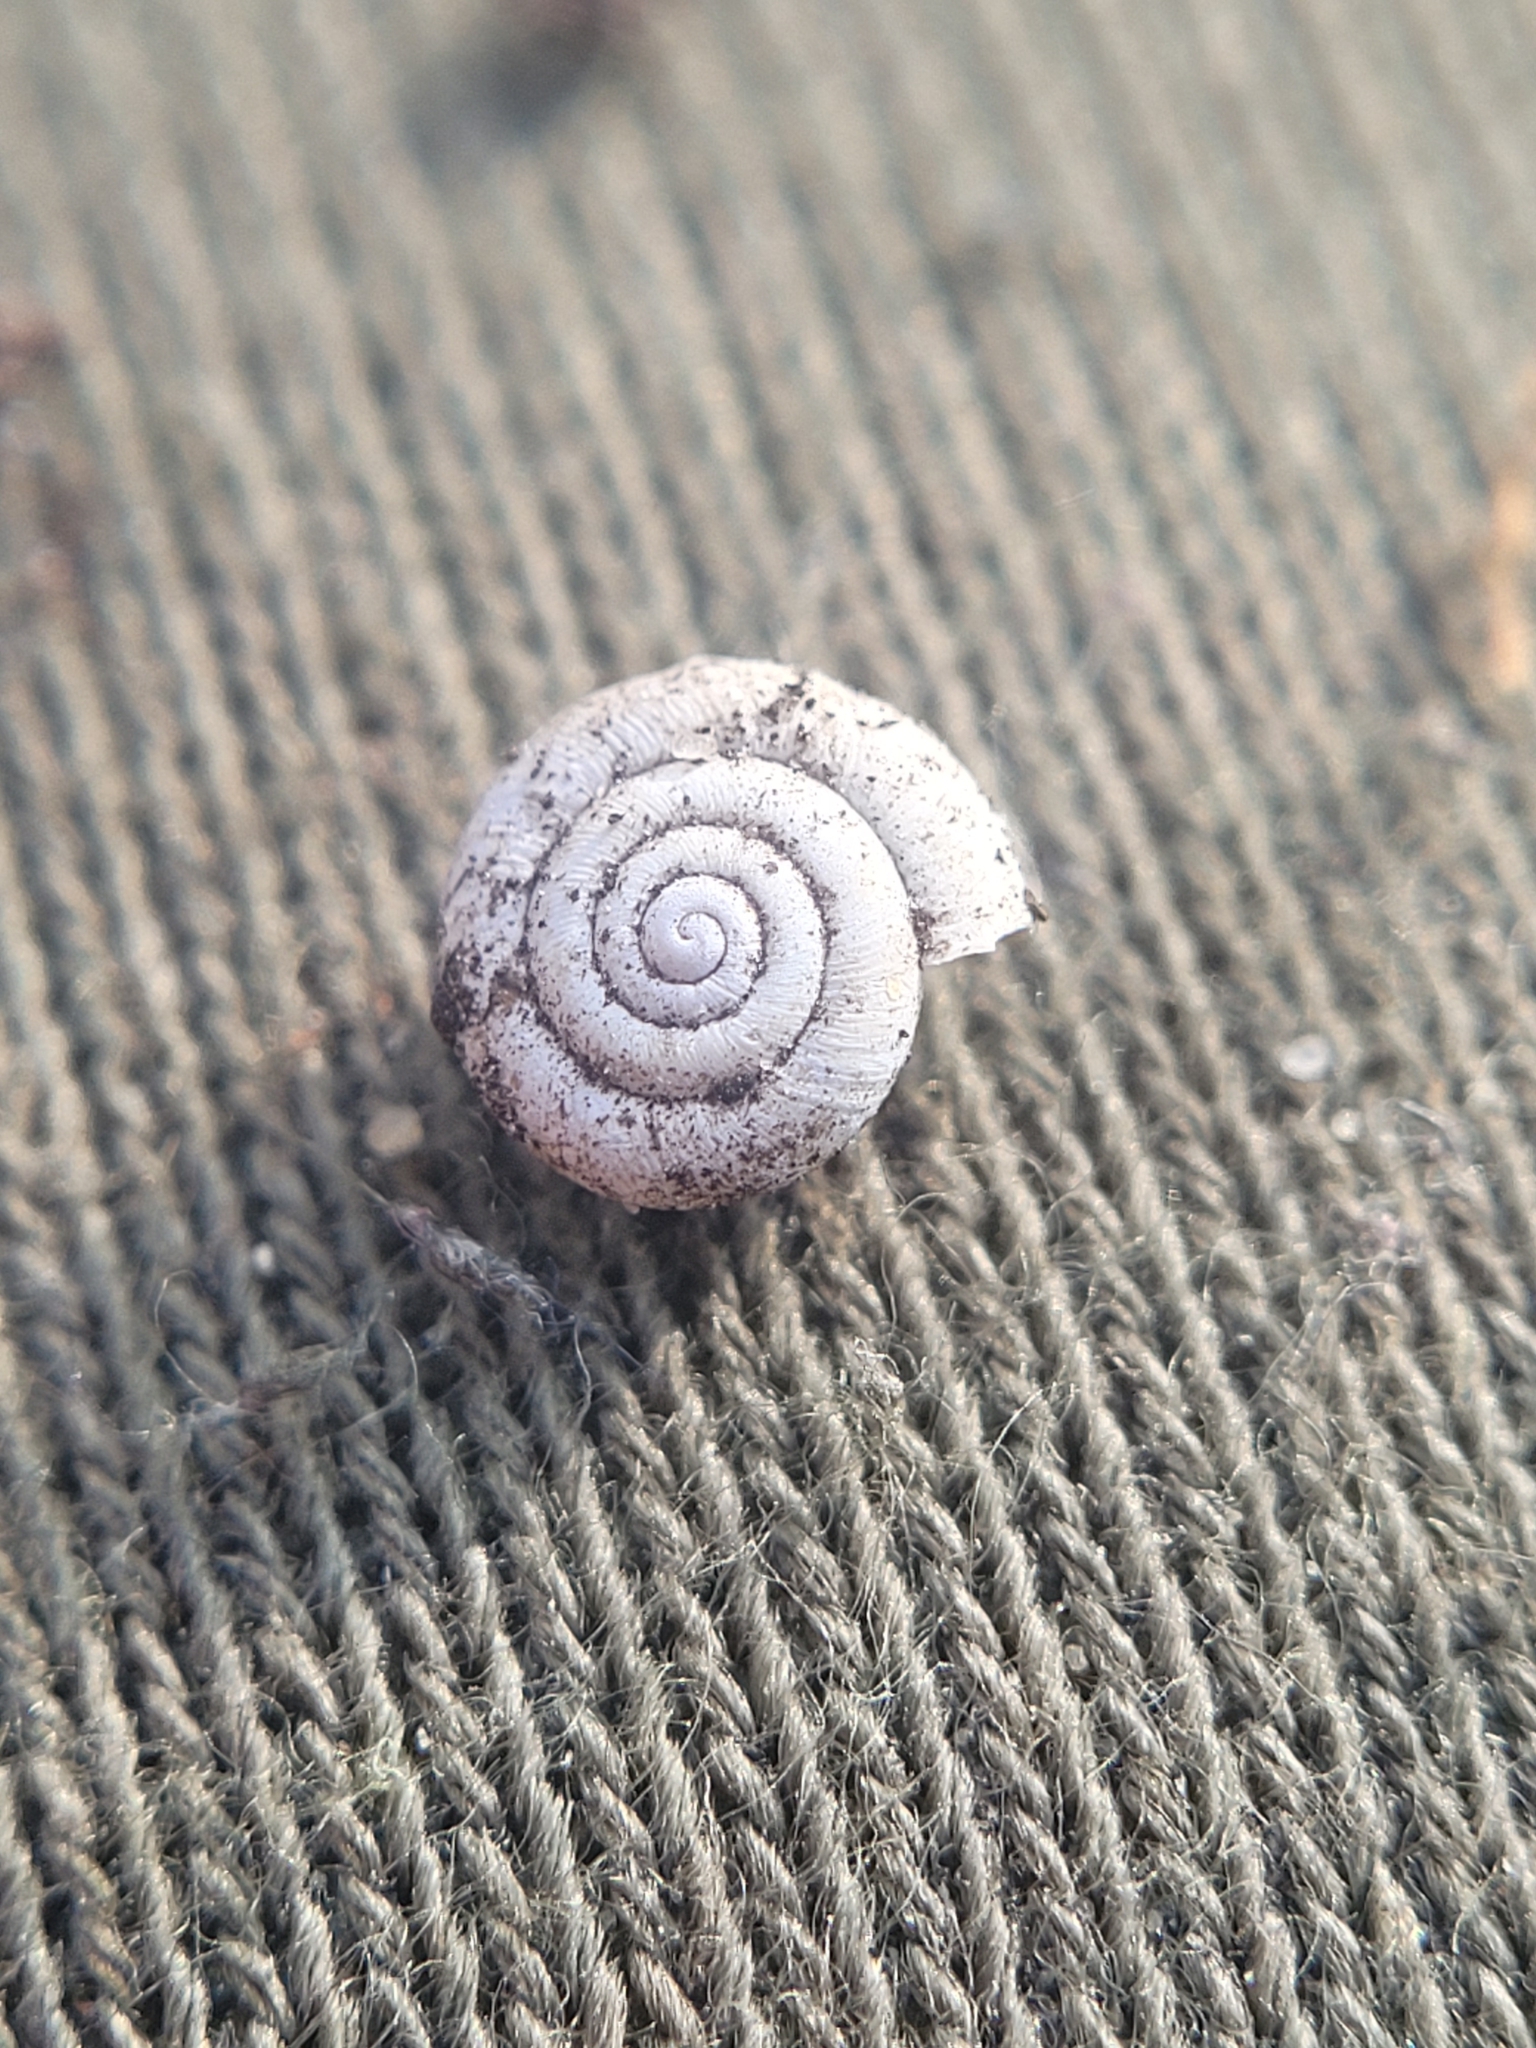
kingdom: Animalia
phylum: Mollusca
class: Gastropoda
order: Stylommatophora
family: Hygromiidae
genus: Trochulus
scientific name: Trochulus hispidus
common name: Hairy snail
